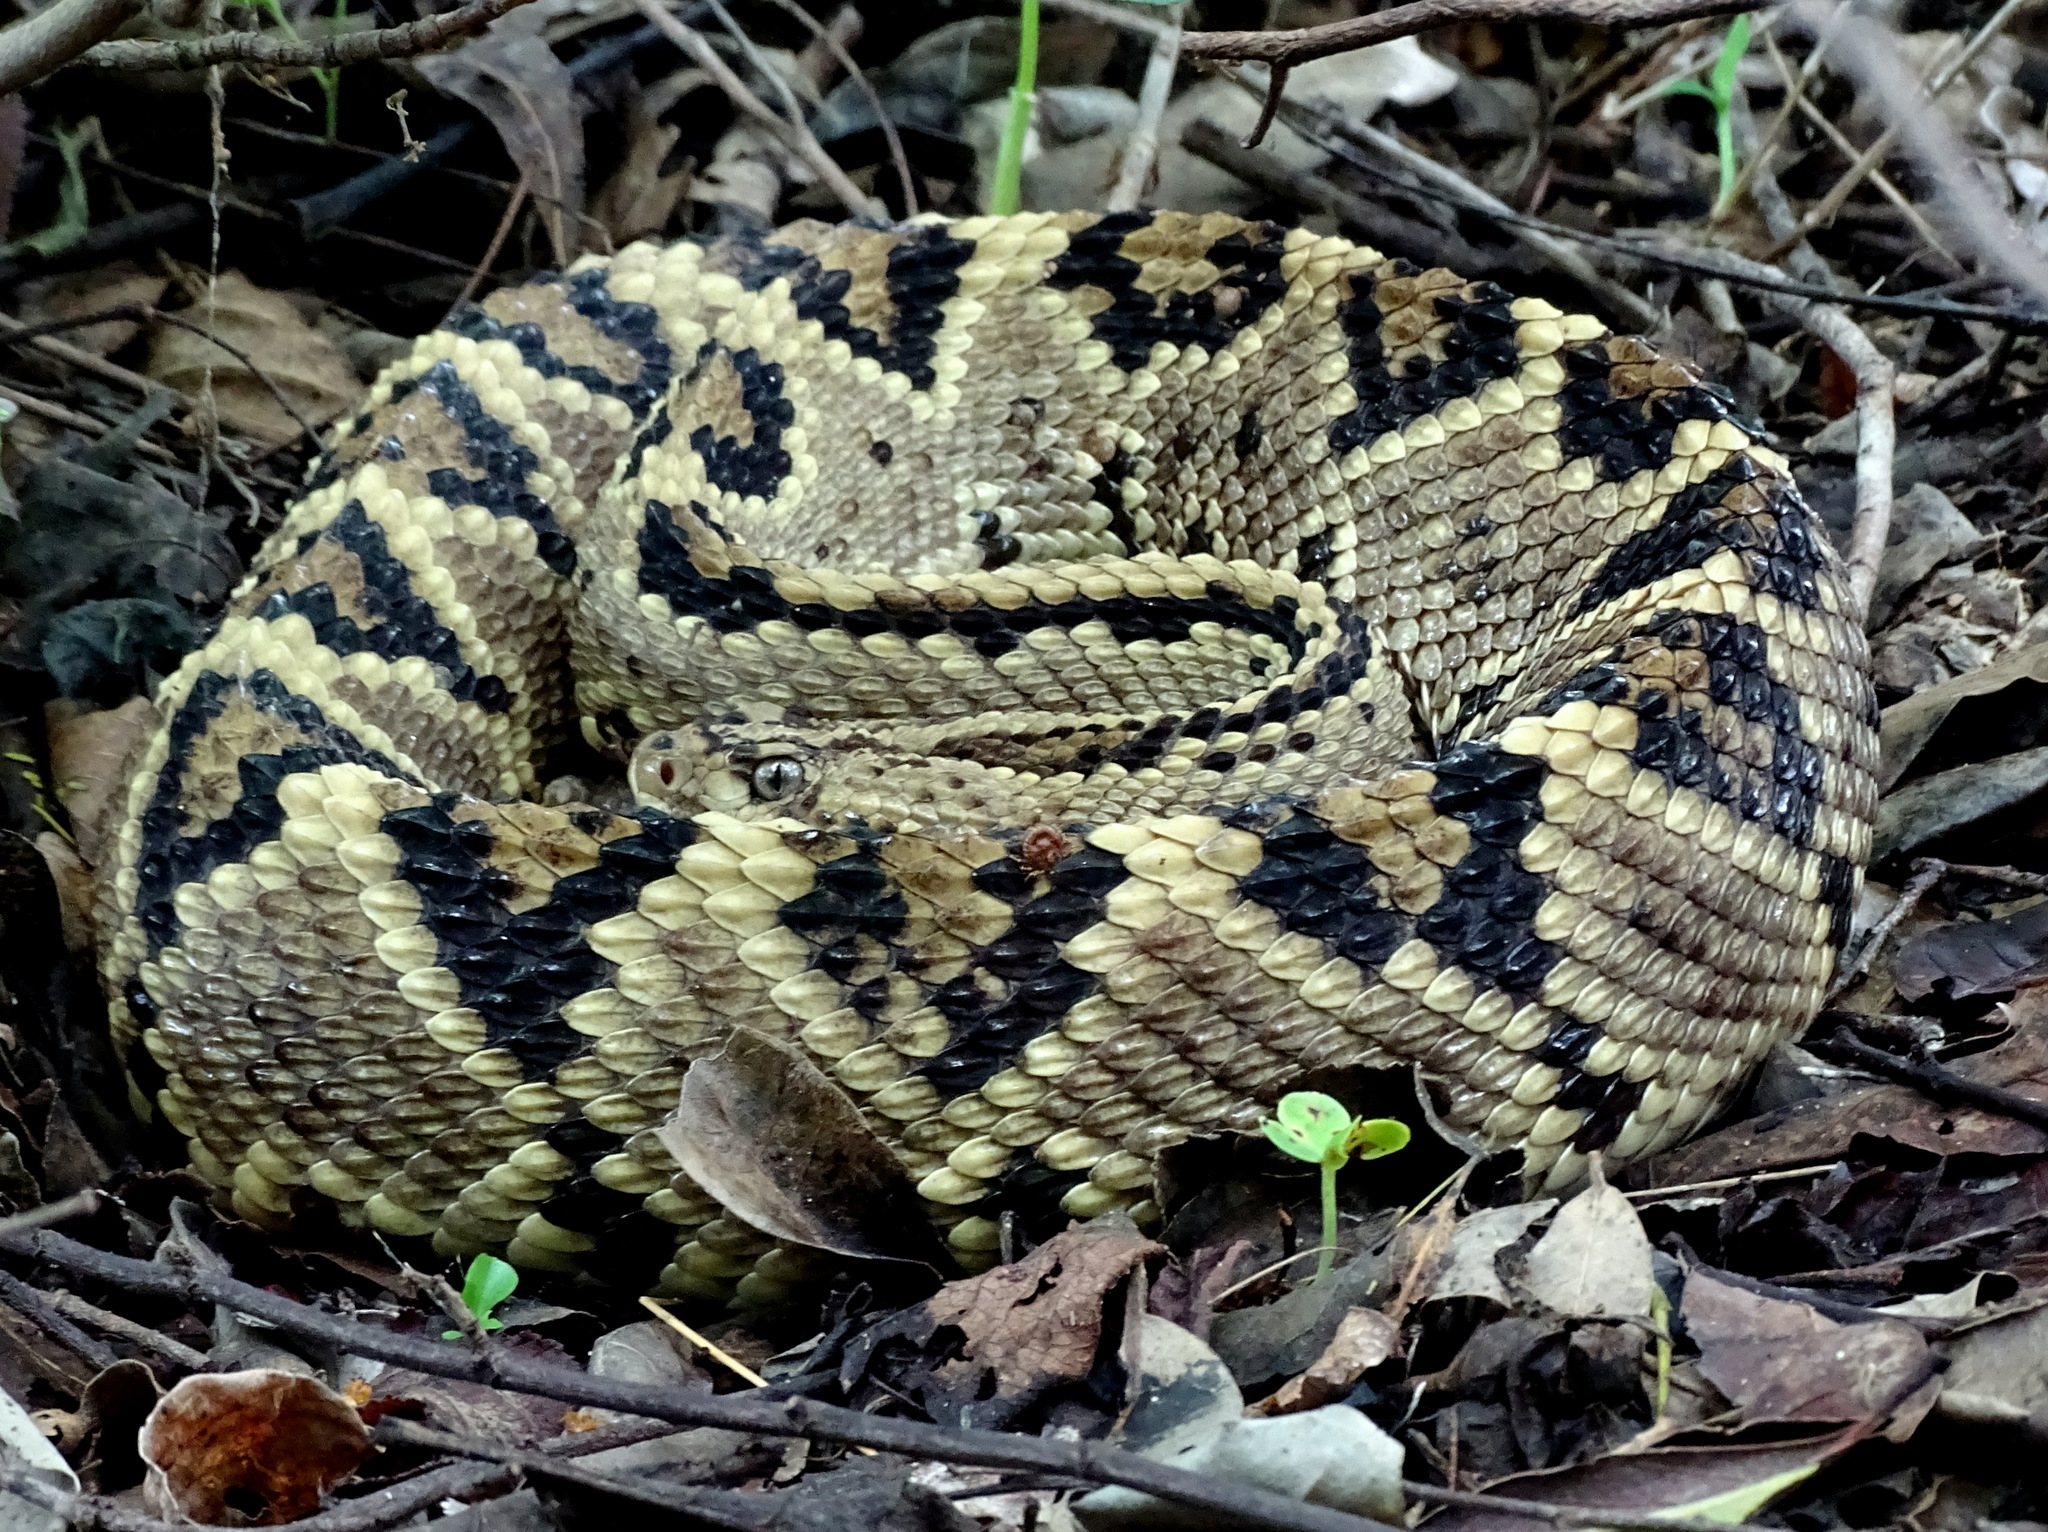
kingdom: Animalia
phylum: Chordata
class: Squamata
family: Viperidae
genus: Crotalus
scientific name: Crotalus ehecatl
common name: Tehuantepec isthmus neotropical rattlesnake
